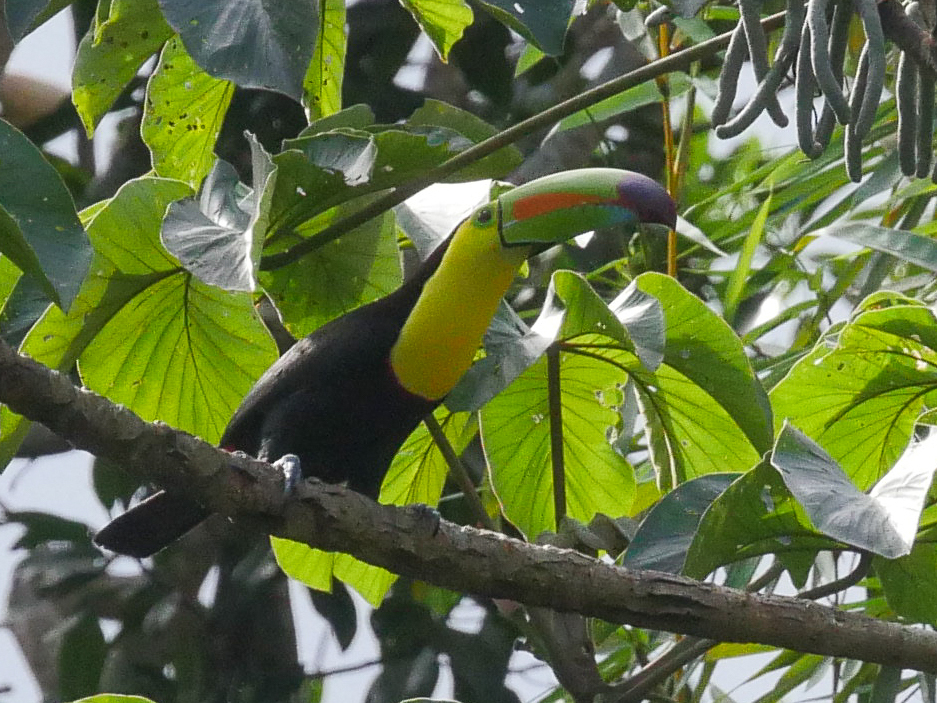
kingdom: Animalia
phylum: Chordata
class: Aves
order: Piciformes
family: Ramphastidae
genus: Ramphastos
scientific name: Ramphastos sulfuratus
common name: Keel-billed toucan
